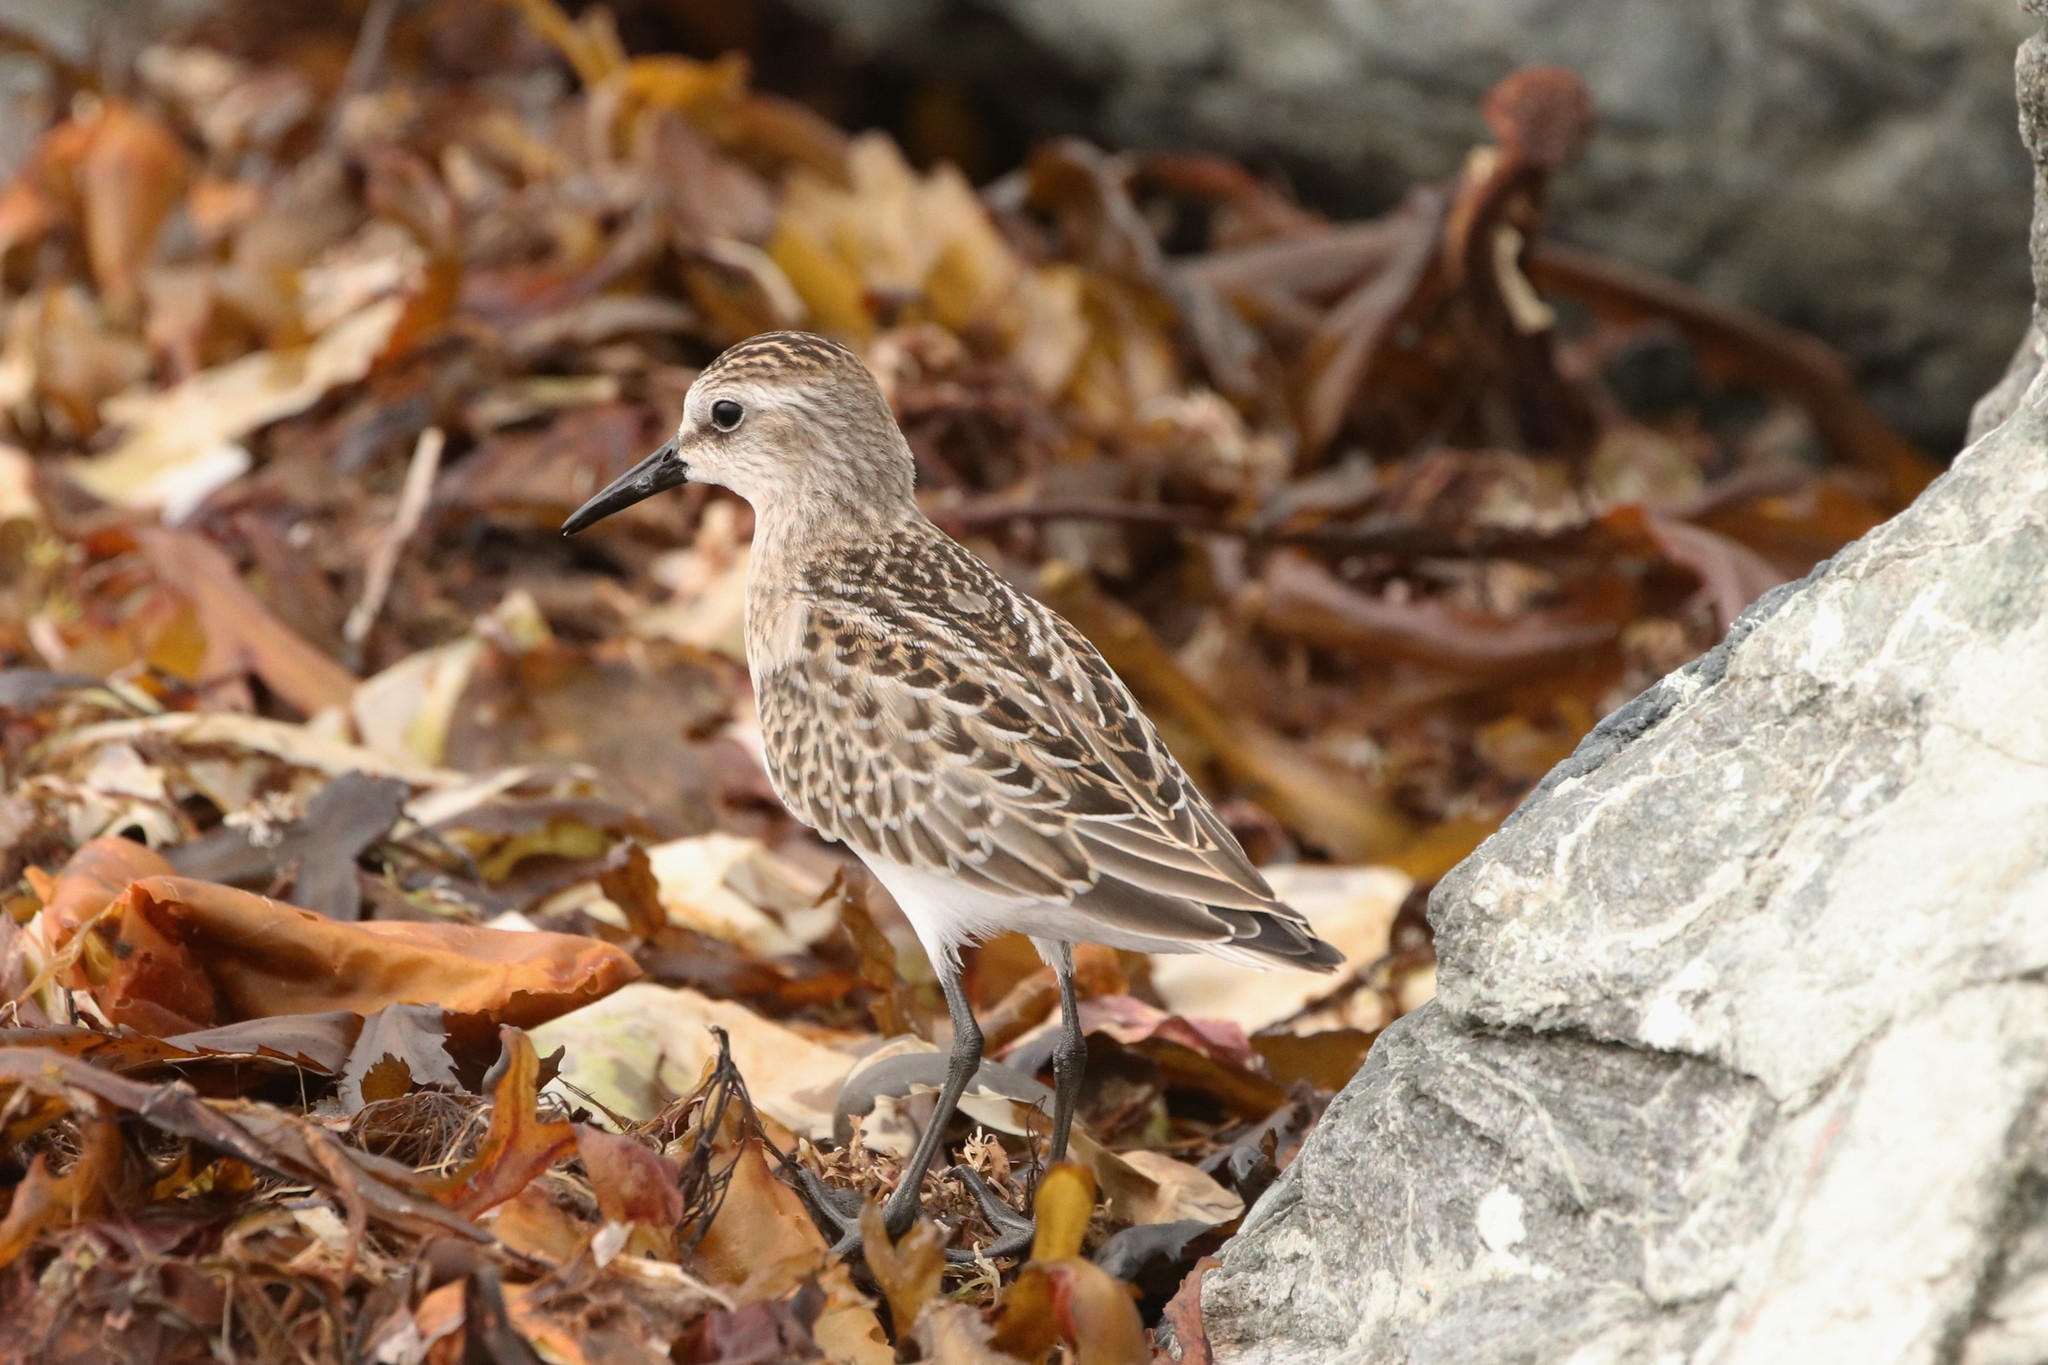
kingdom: Animalia
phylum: Chordata
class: Aves
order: Charadriiformes
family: Scolopacidae
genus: Calidris
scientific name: Calidris pusilla
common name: Semipalmated sandpiper
